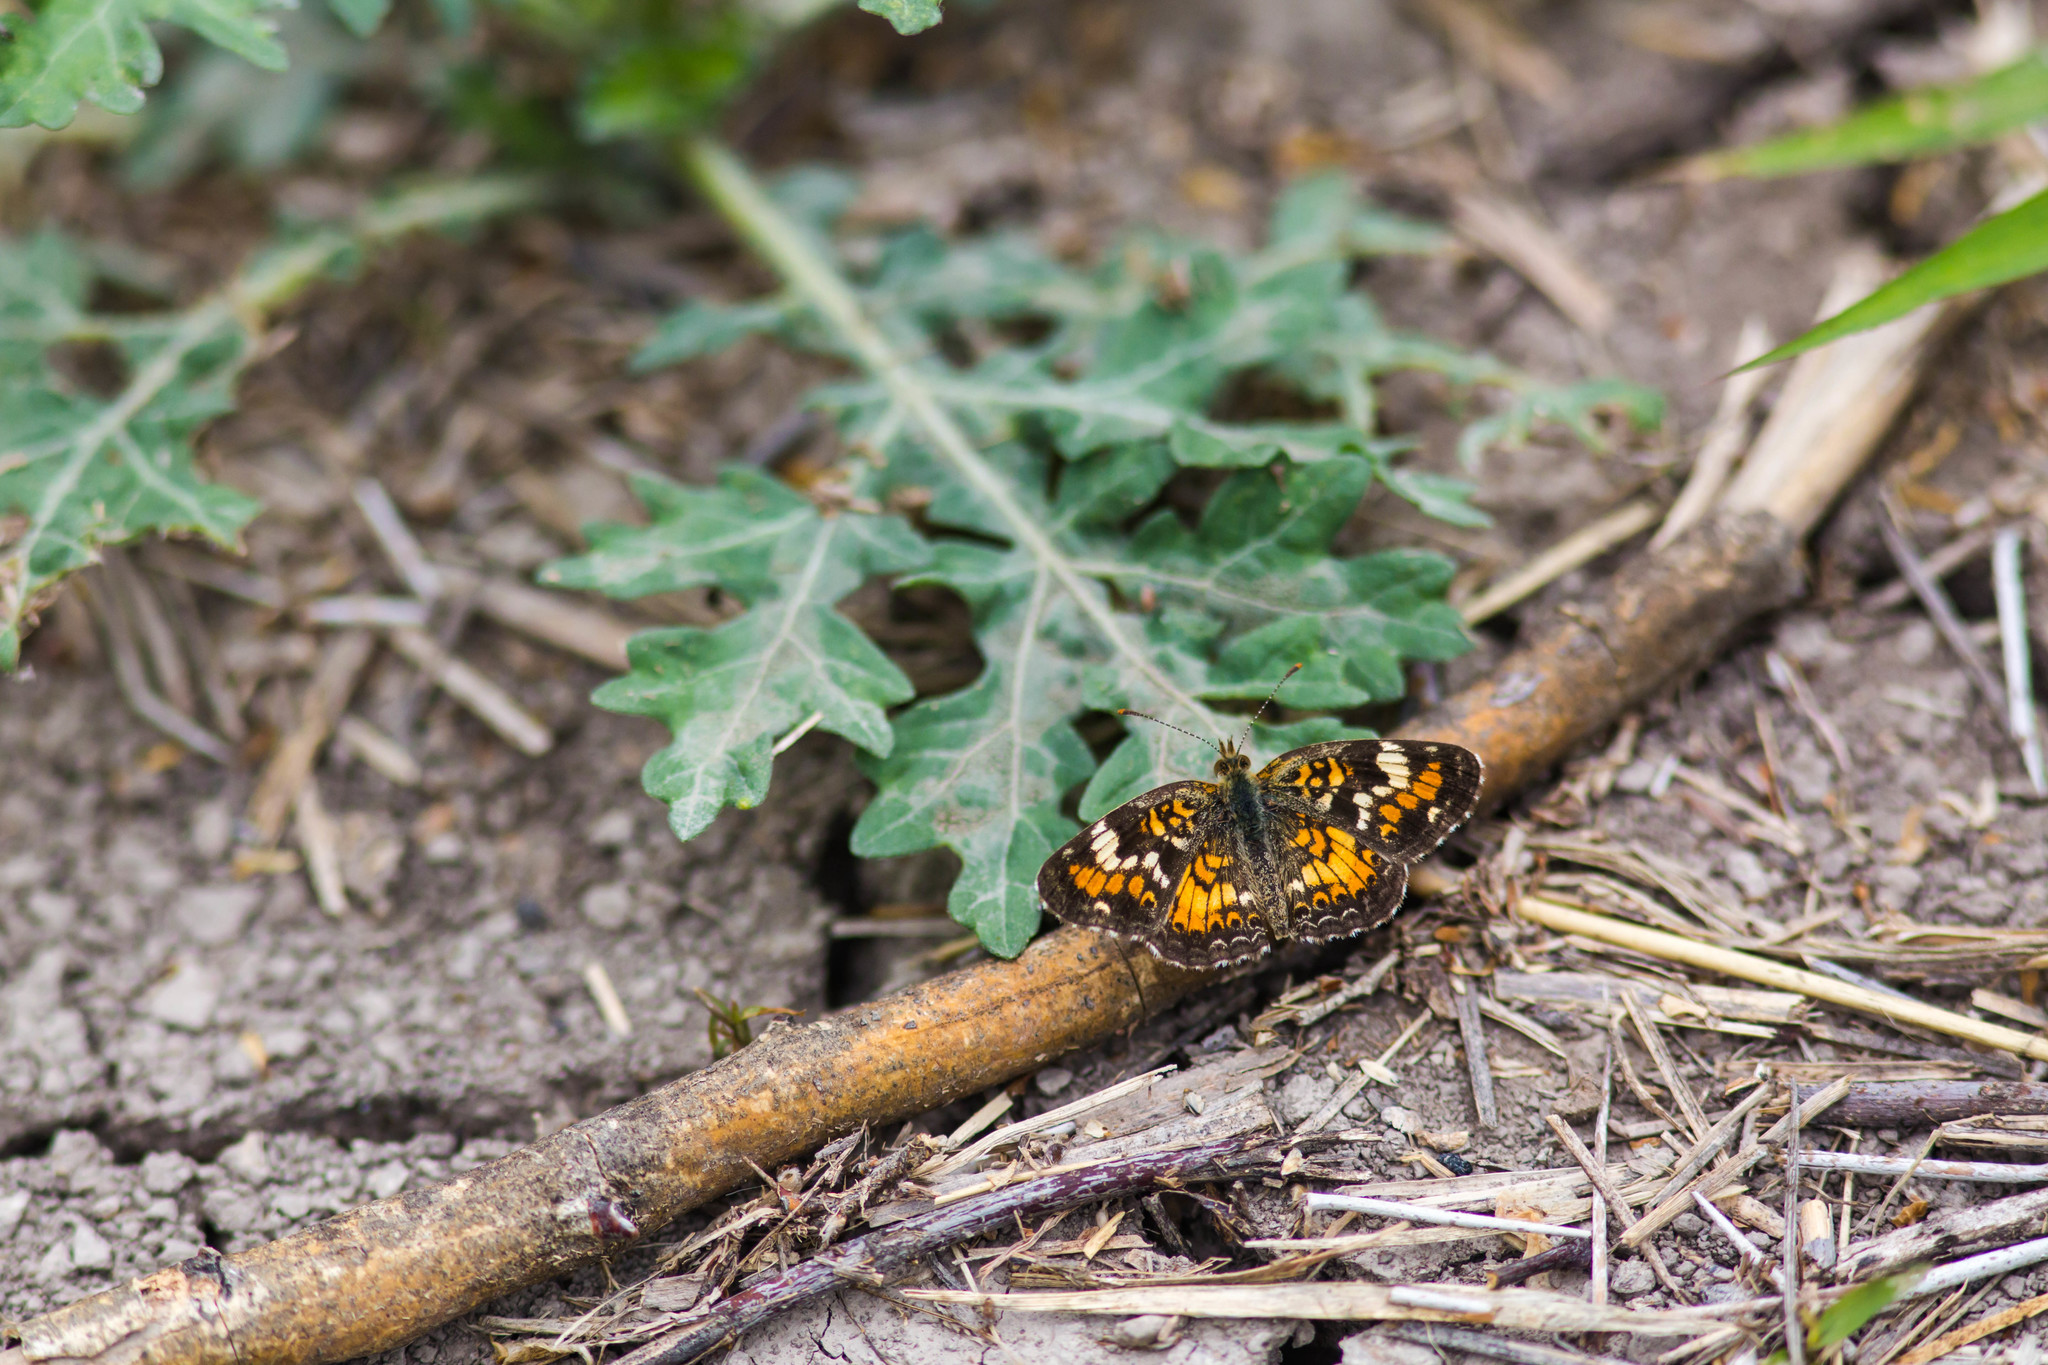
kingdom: Animalia
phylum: Arthropoda
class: Insecta
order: Lepidoptera
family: Nymphalidae
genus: Phyciodes
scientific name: Phyciodes phaon
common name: Phaon crescent
